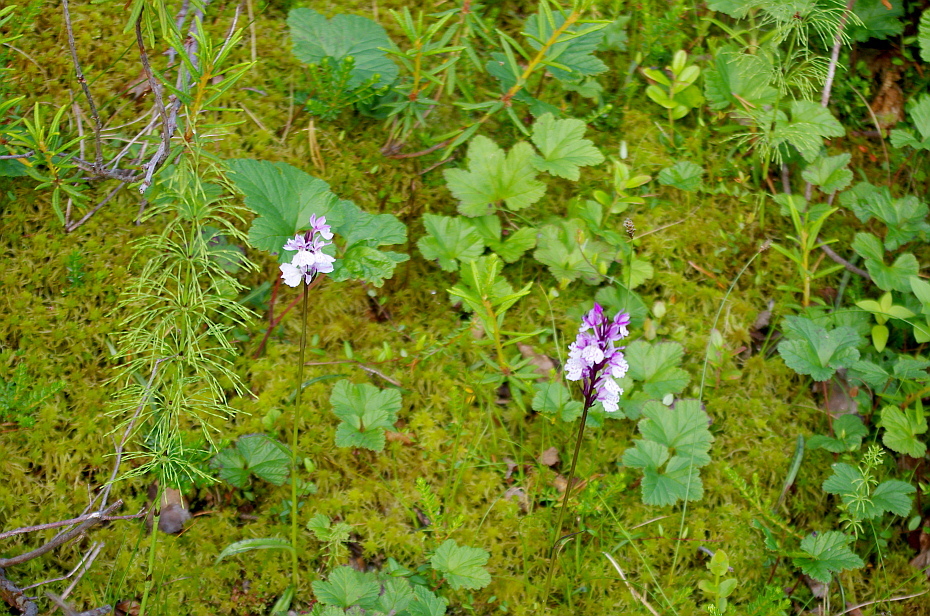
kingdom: Plantae
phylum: Tracheophyta
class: Polypodiopsida
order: Equisetales
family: Equisetaceae
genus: Equisetum
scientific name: Equisetum sylvaticum
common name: Wood horsetail
